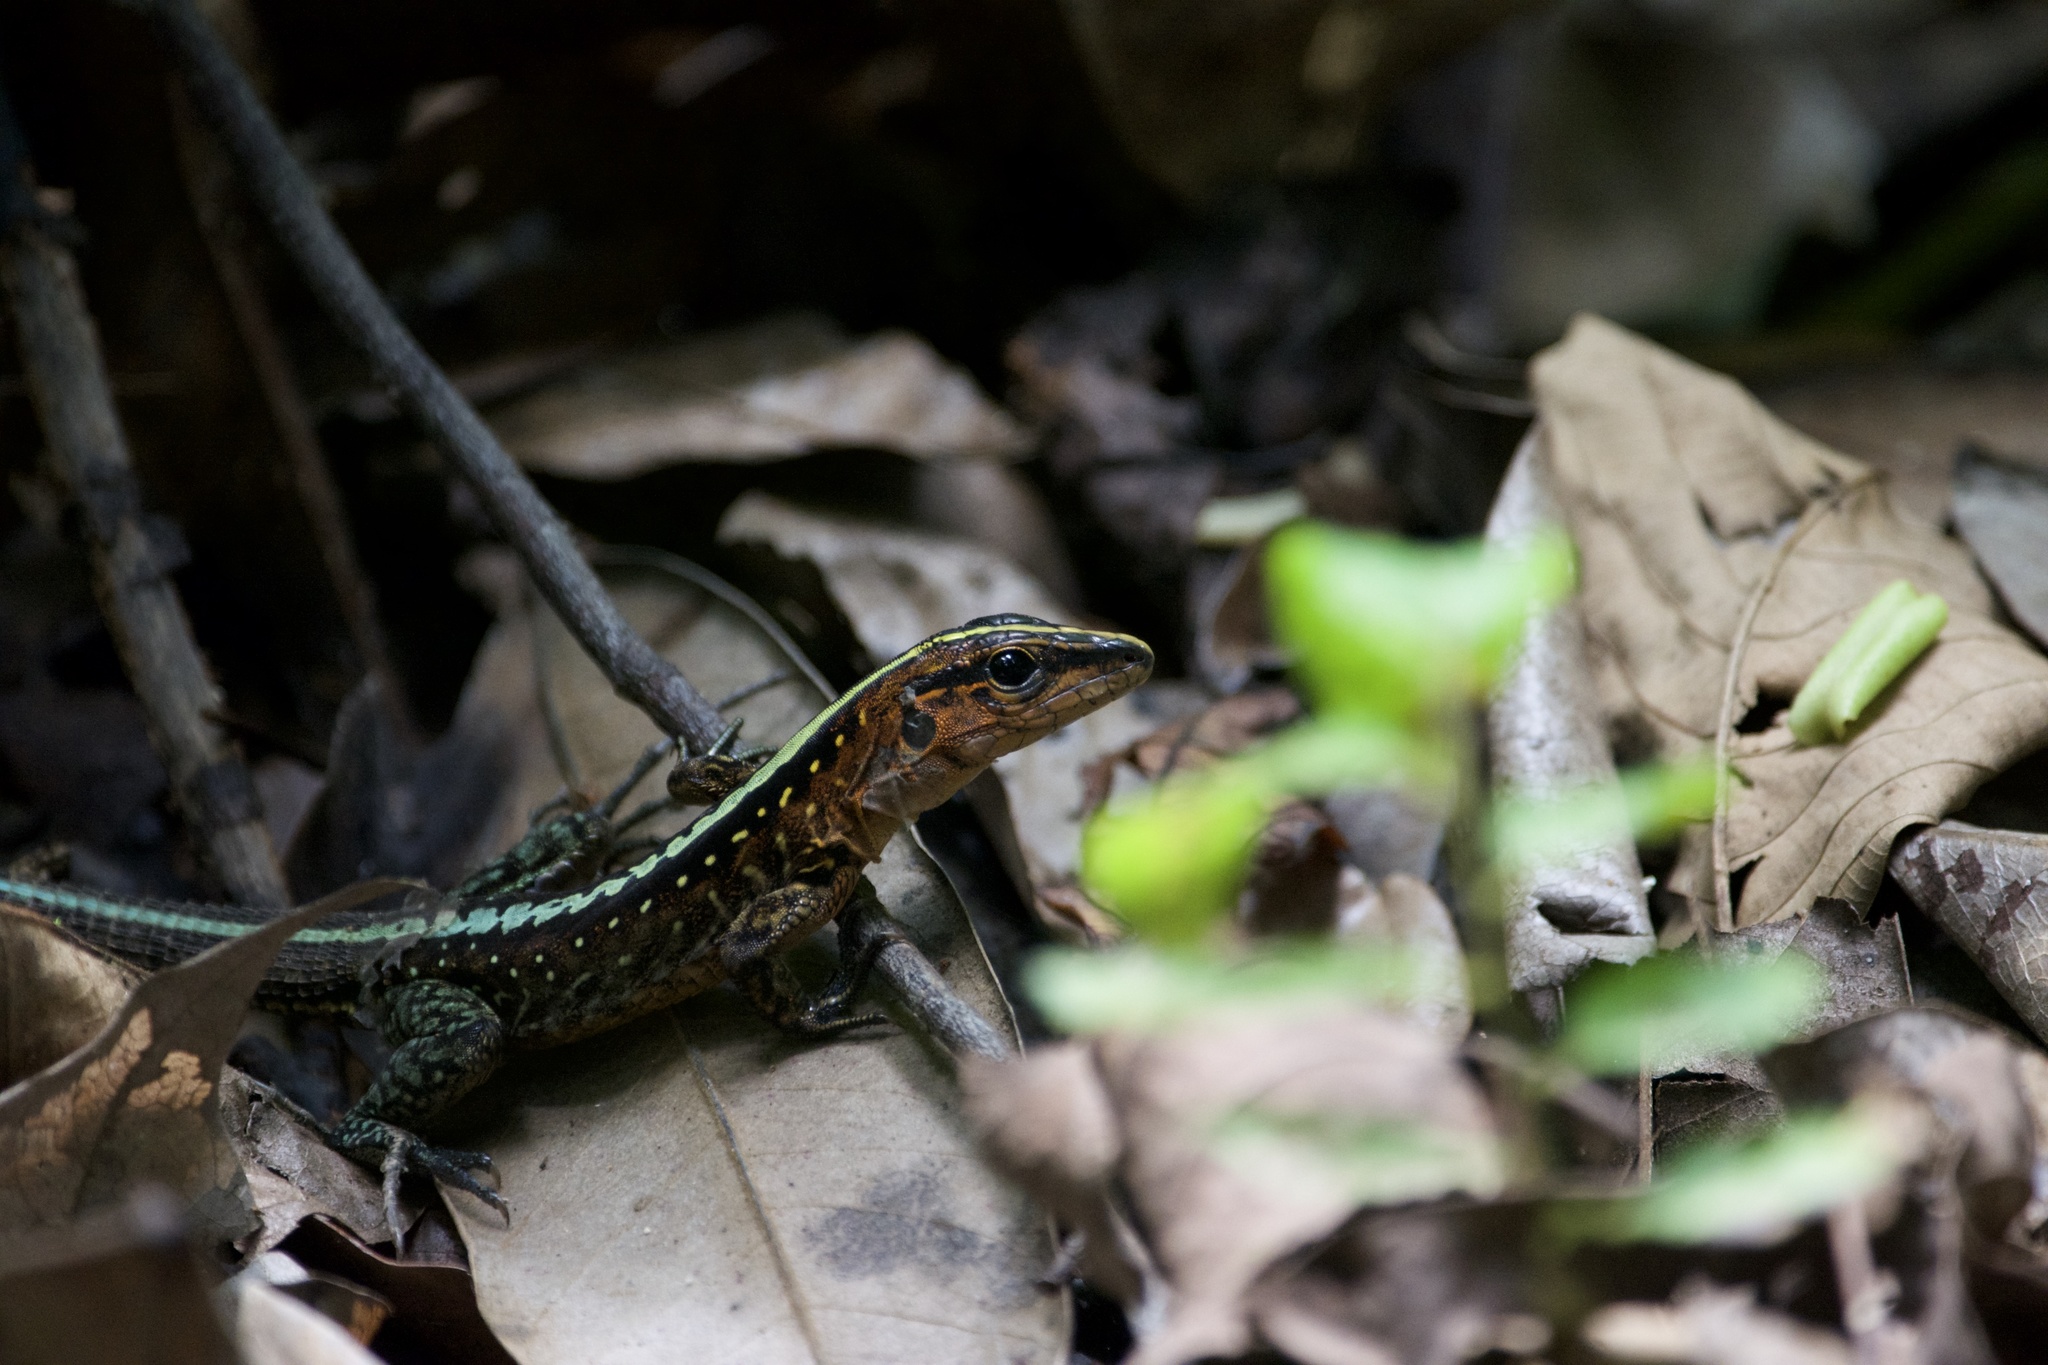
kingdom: Animalia
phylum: Chordata
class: Squamata
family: Teiidae
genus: Holcosus
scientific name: Holcosus festivus
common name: Middle american ameiva
